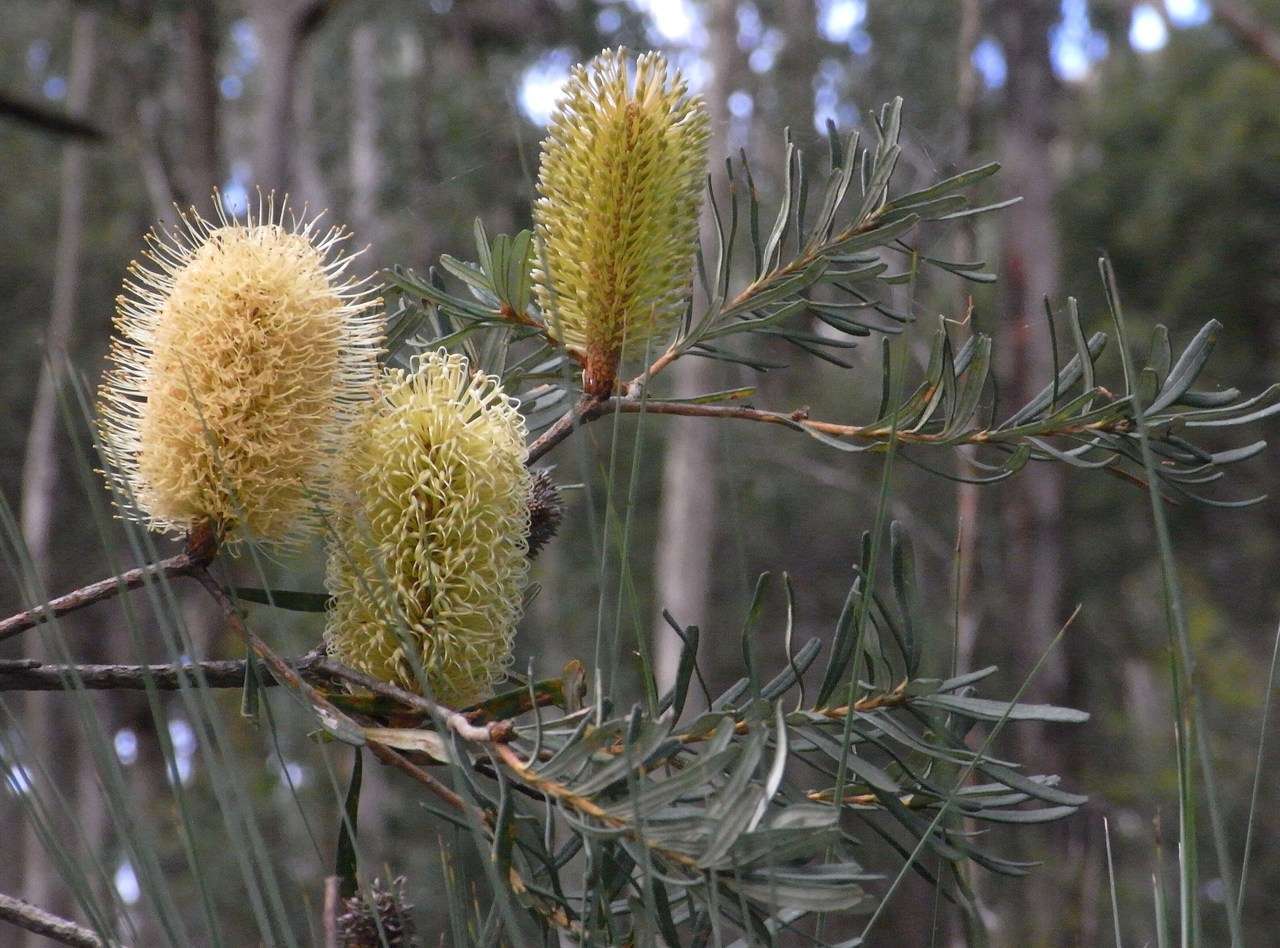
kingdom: Plantae
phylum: Tracheophyta
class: Magnoliopsida
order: Proteales
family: Proteaceae
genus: Banksia
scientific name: Banksia marginata
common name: Silver banksia
